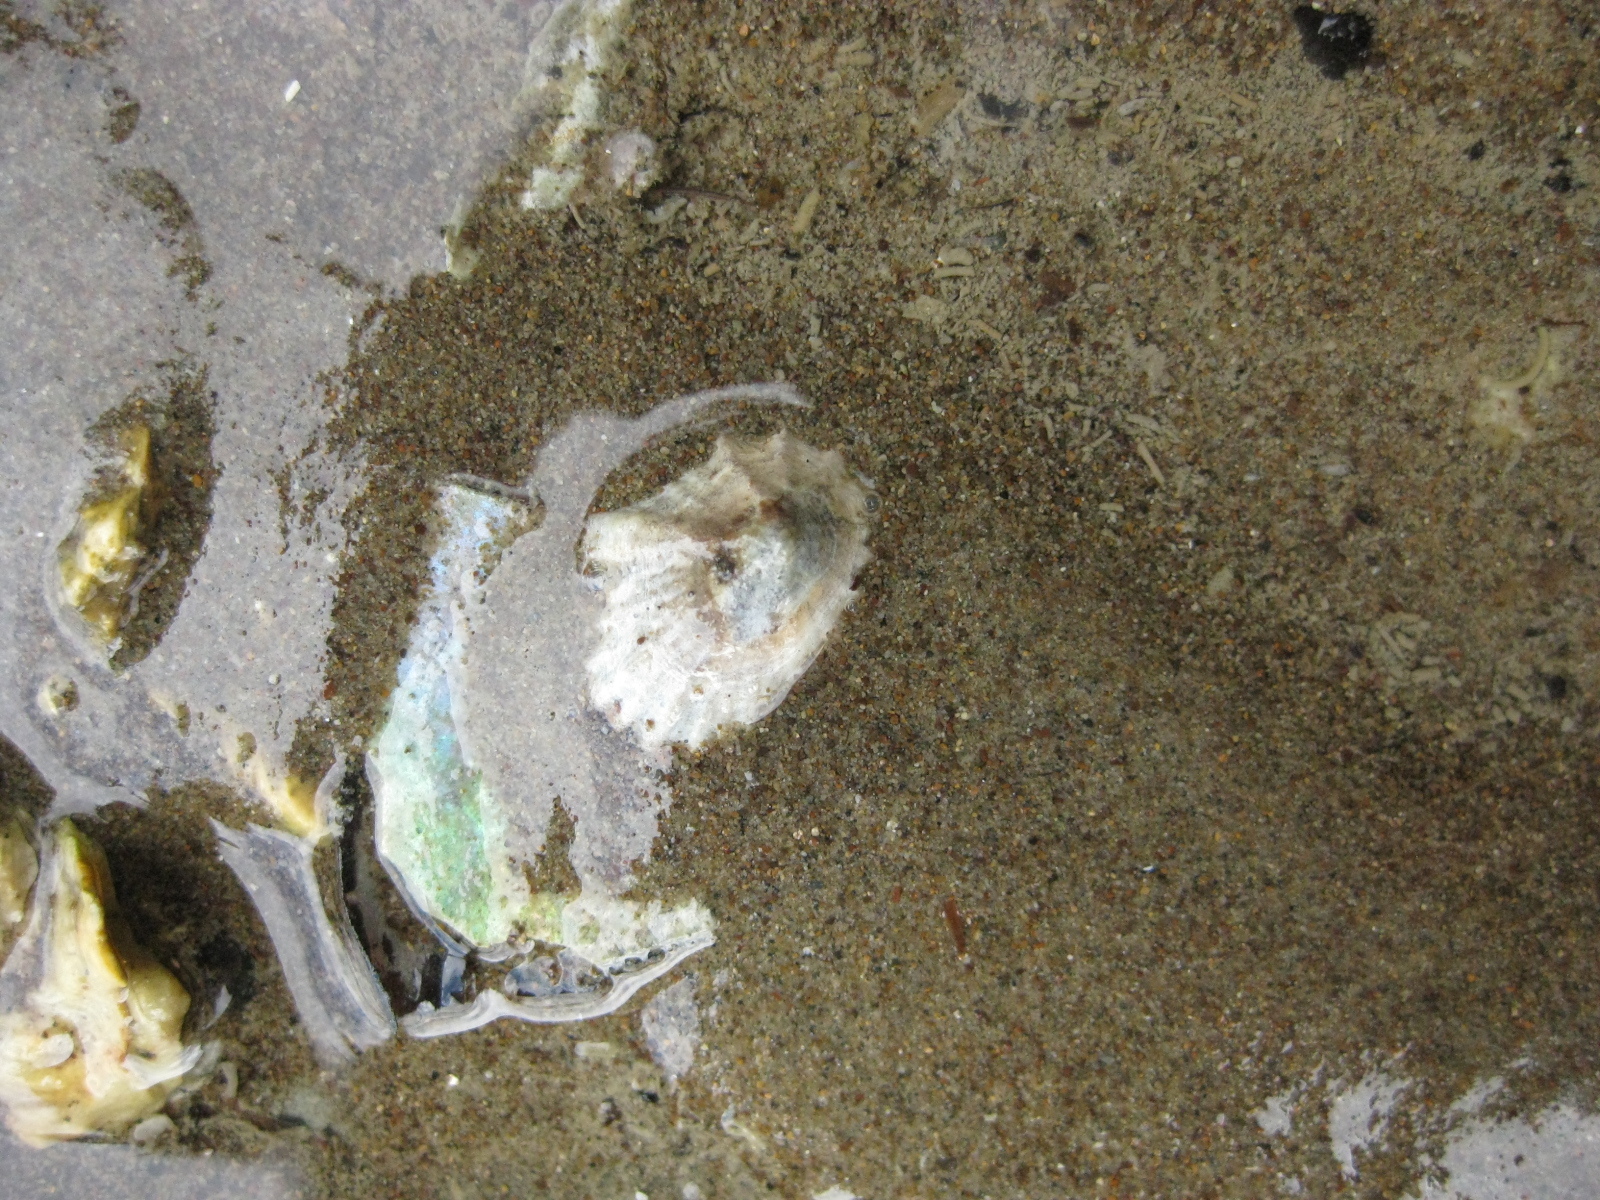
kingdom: Animalia
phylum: Mollusca
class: Gastropoda
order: Siphonariida
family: Siphonariidae
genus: Siphonaria
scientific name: Siphonaria australis
